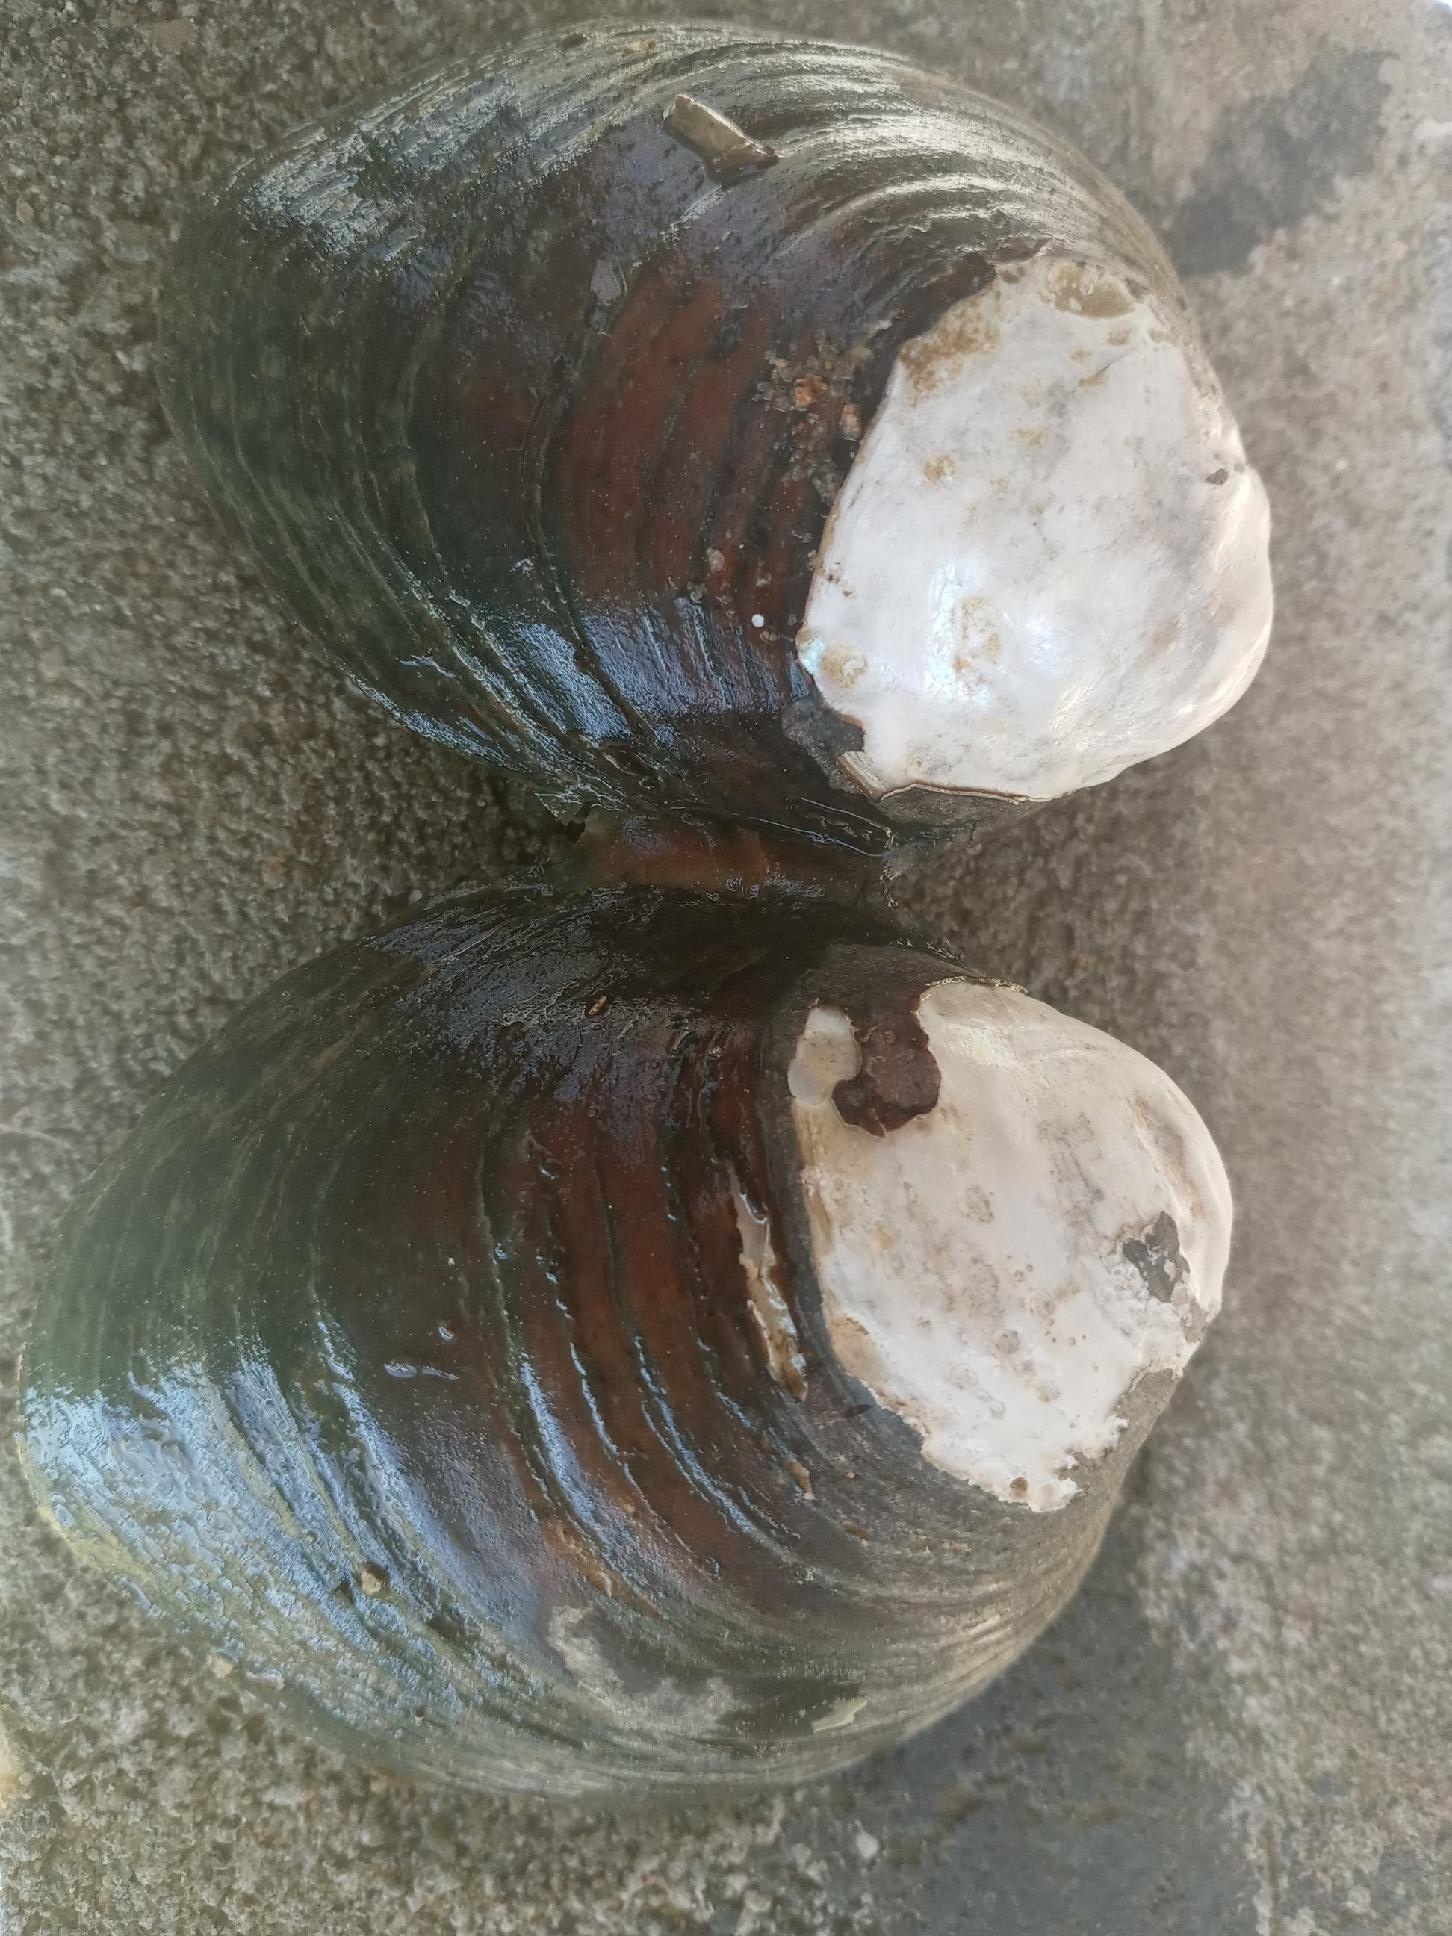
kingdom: Animalia
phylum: Mollusca
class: Bivalvia
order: Unionida
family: Unionidae
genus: Reginaia
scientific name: Reginaia ebenus
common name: Ebonyshell
